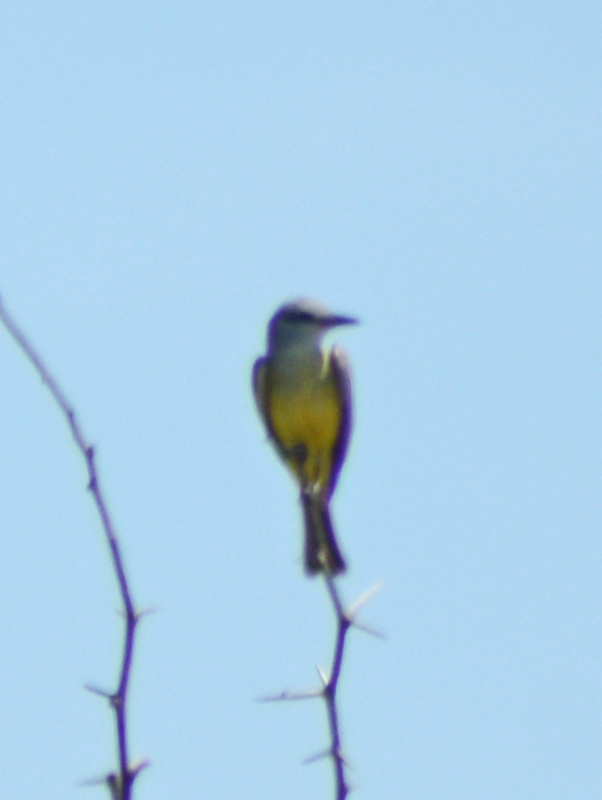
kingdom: Animalia
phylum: Chordata
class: Aves
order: Passeriformes
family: Tyrannidae
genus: Tyrannus
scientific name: Tyrannus melancholicus
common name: Tropical kingbird
